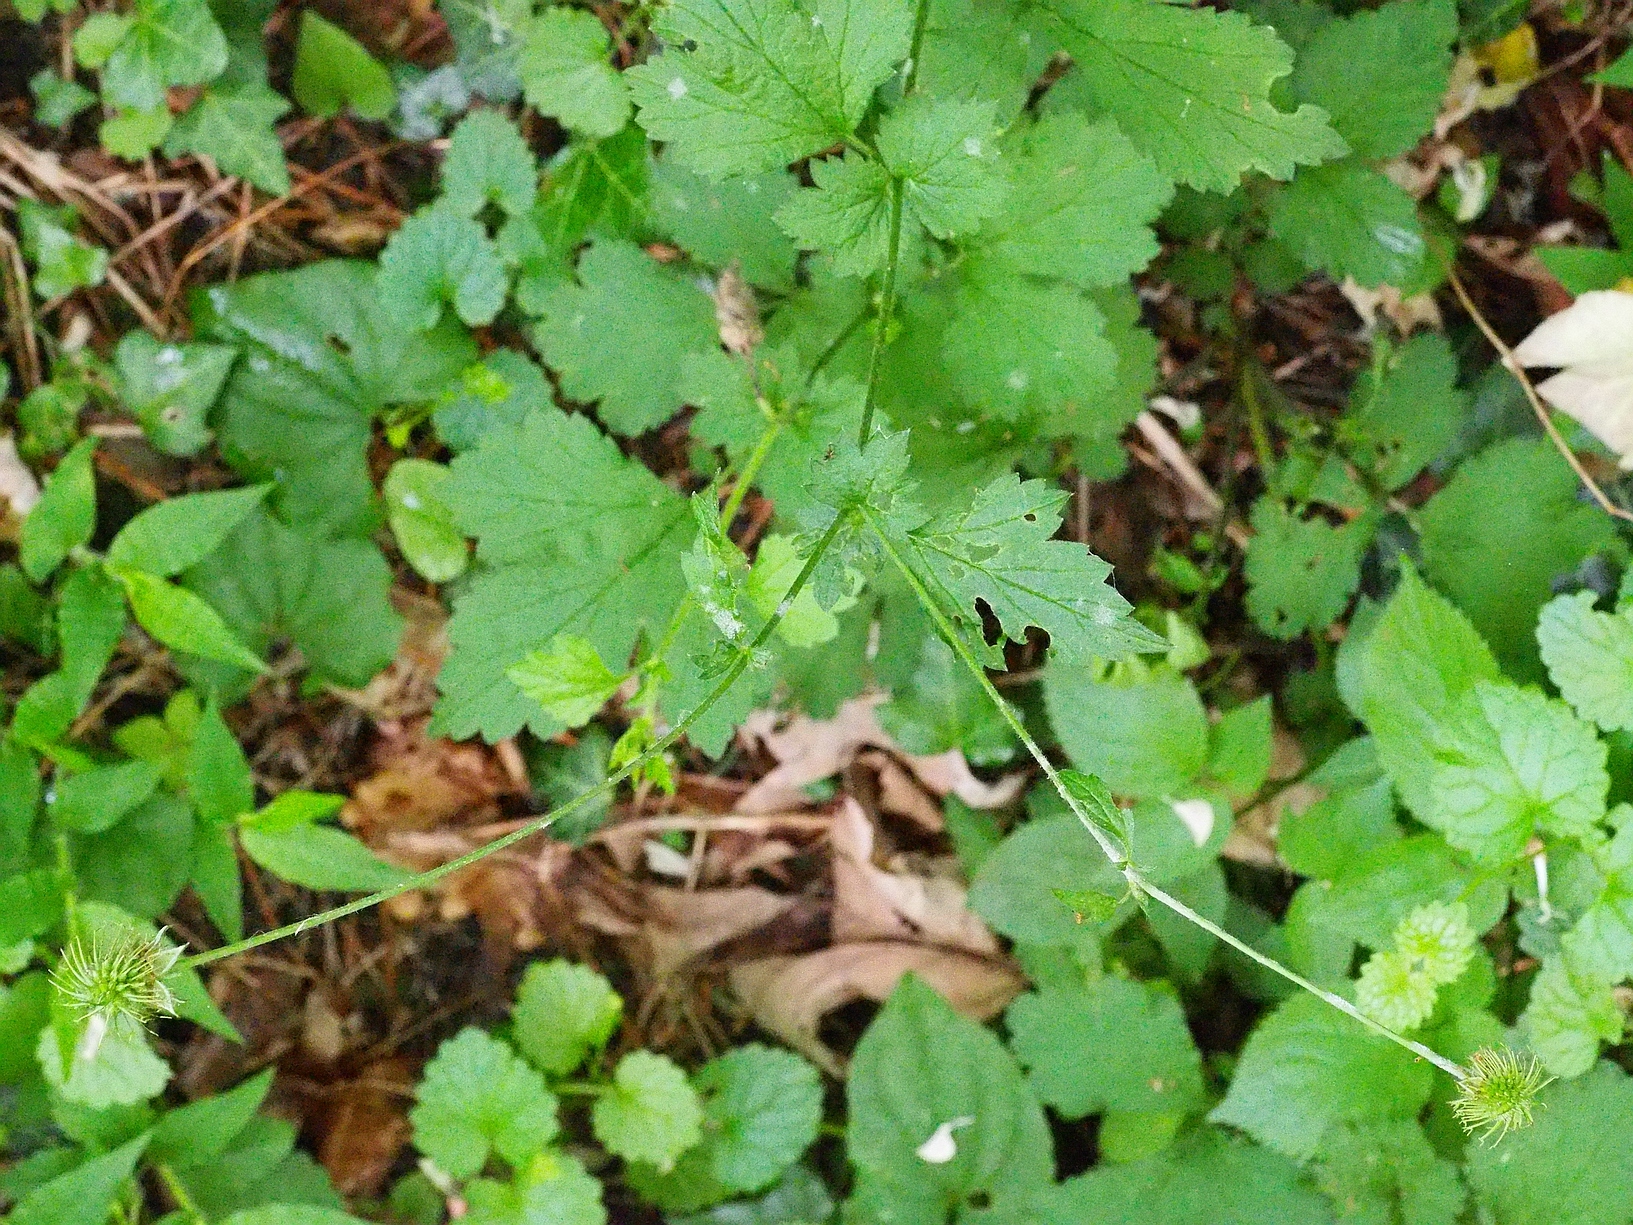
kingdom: Plantae
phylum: Tracheophyta
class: Magnoliopsida
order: Rosales
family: Rosaceae
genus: Geum
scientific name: Geum urbanum
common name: Wood avens
